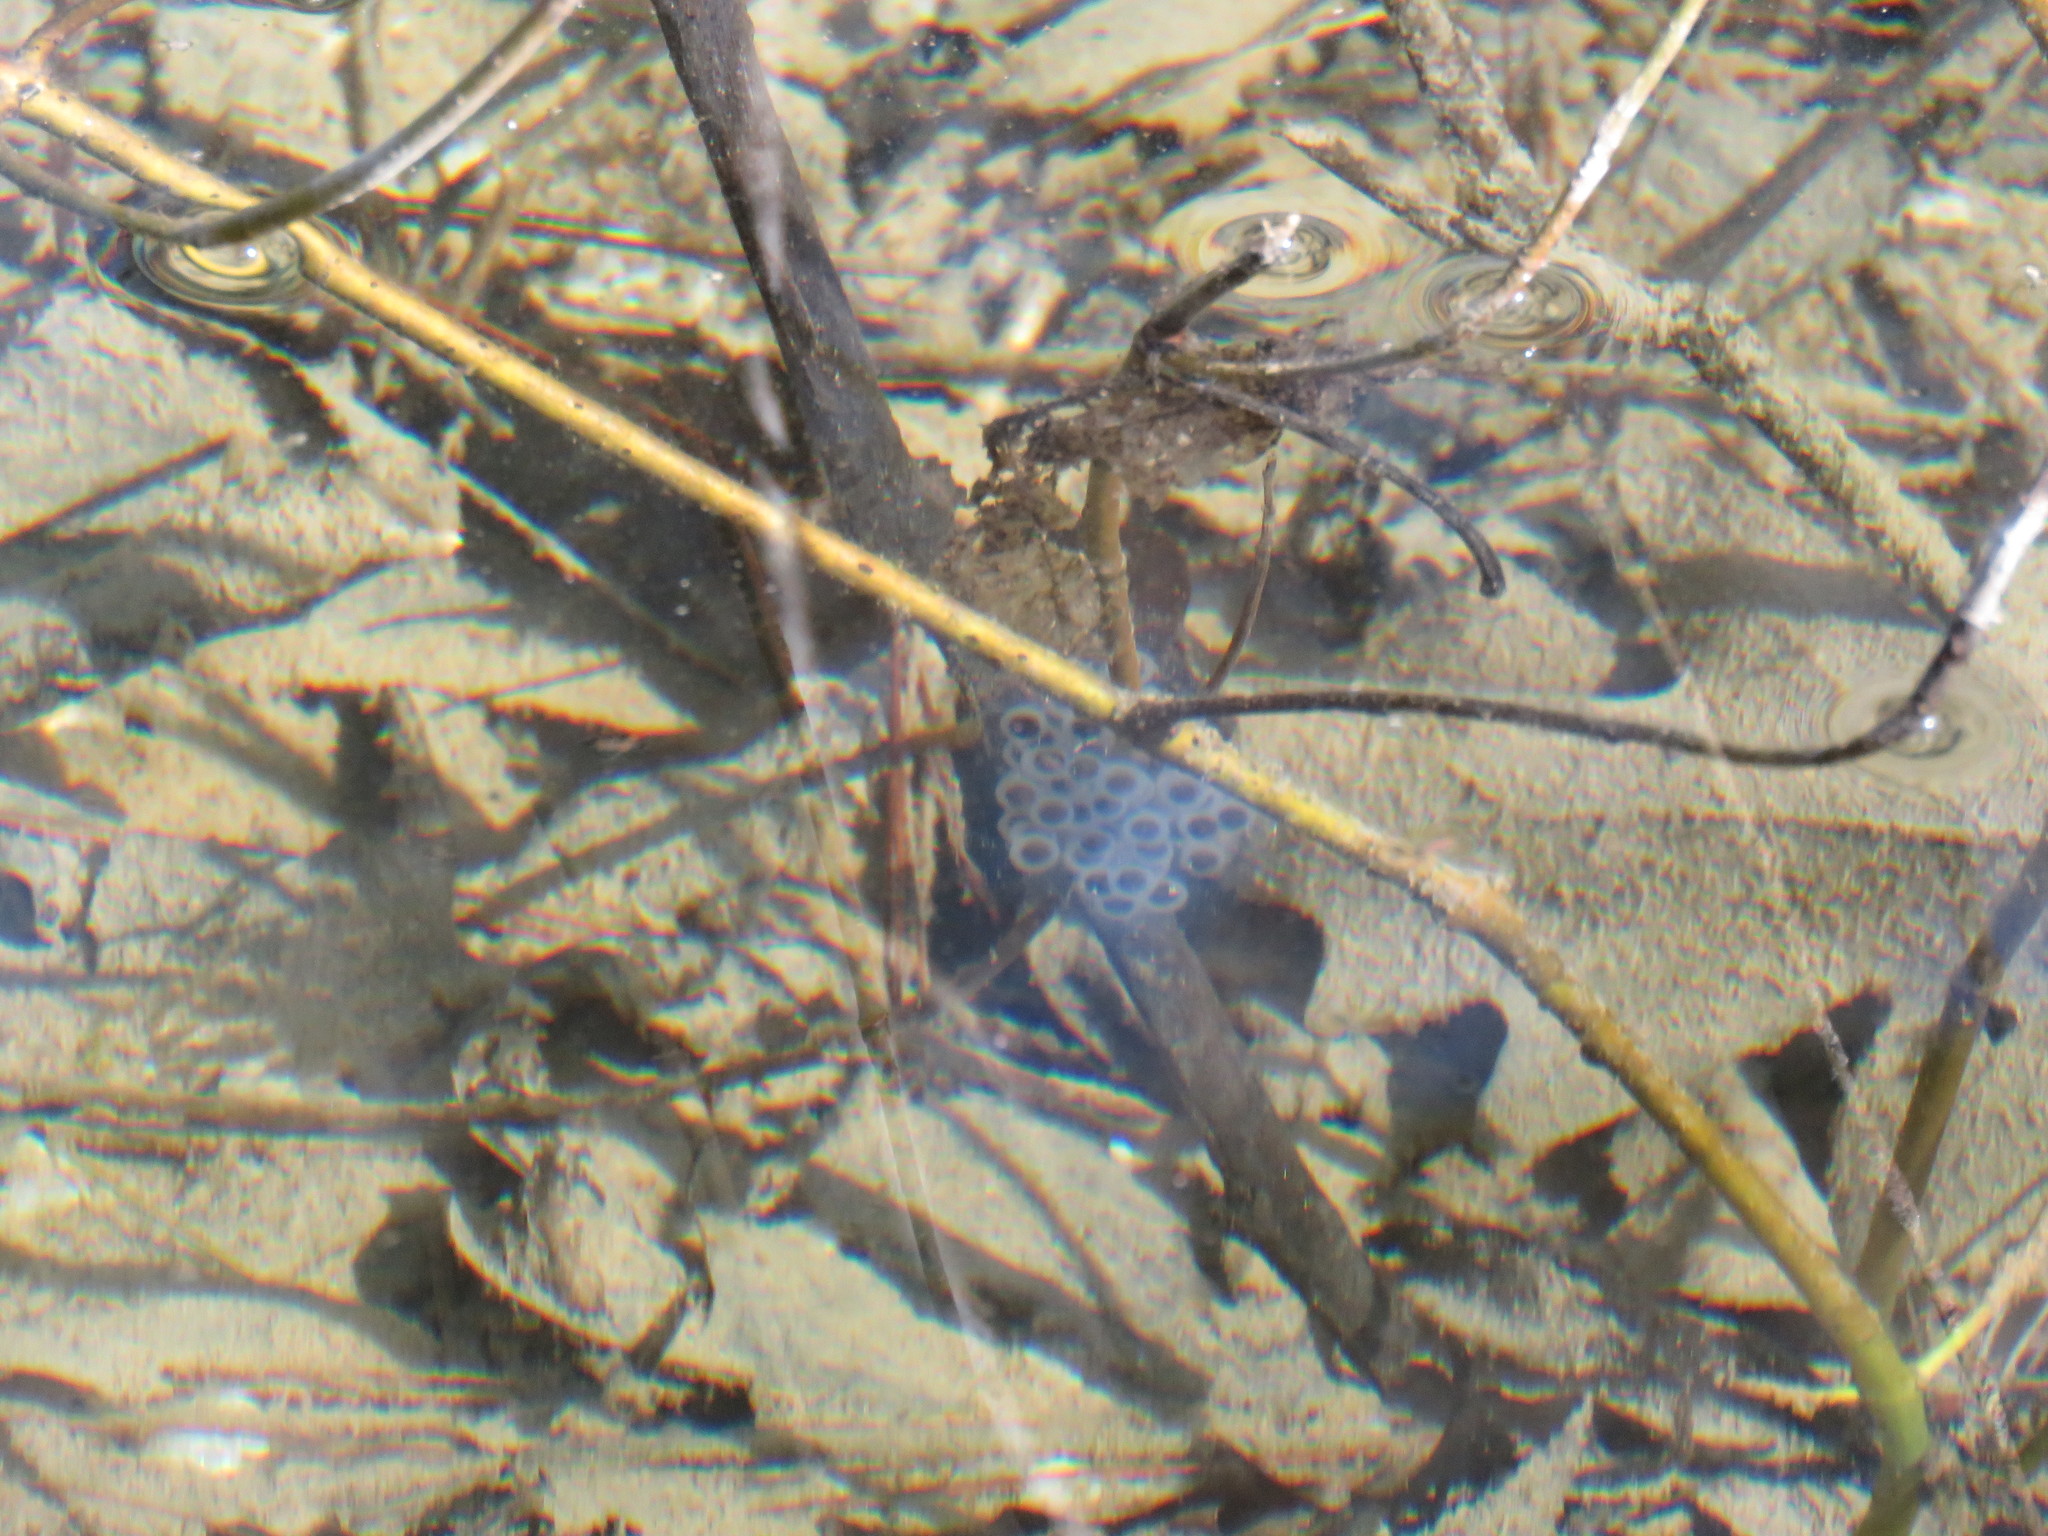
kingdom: Animalia
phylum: Chordata
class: Amphibia
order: Caudata
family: Ambystomatidae
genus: Ambystoma
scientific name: Ambystoma maculatum
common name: Spotted salamander
